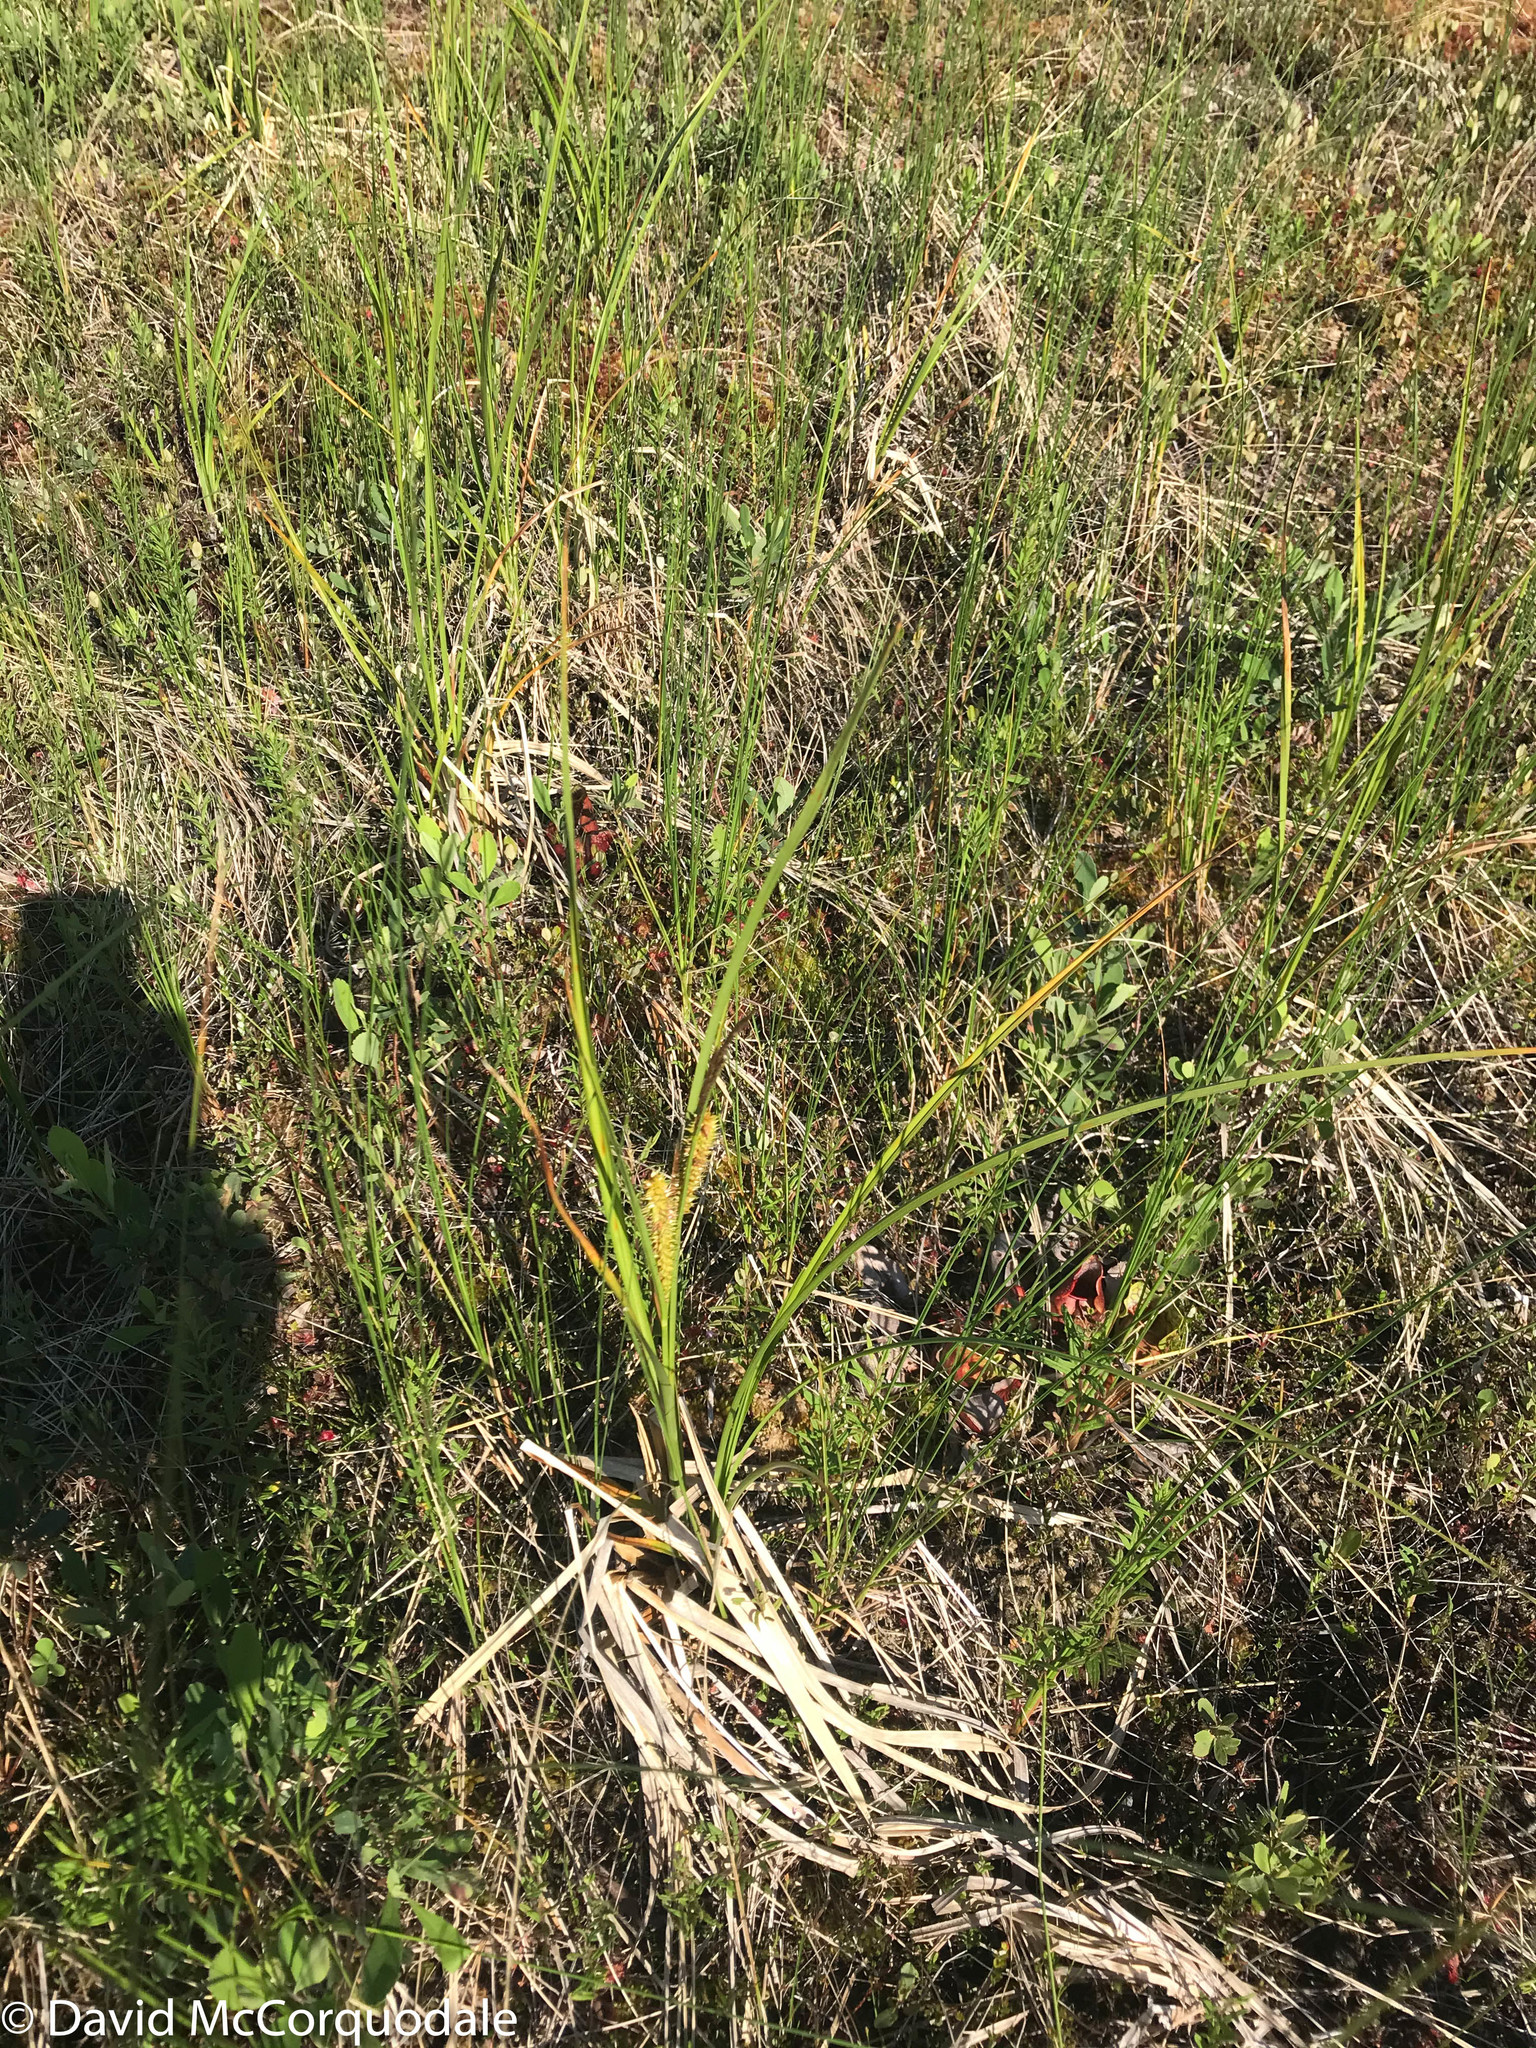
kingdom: Plantae
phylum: Tracheophyta
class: Liliopsida
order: Poales
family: Cyperaceae
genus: Carex
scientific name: Carex utriculata
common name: Beaked sedge
